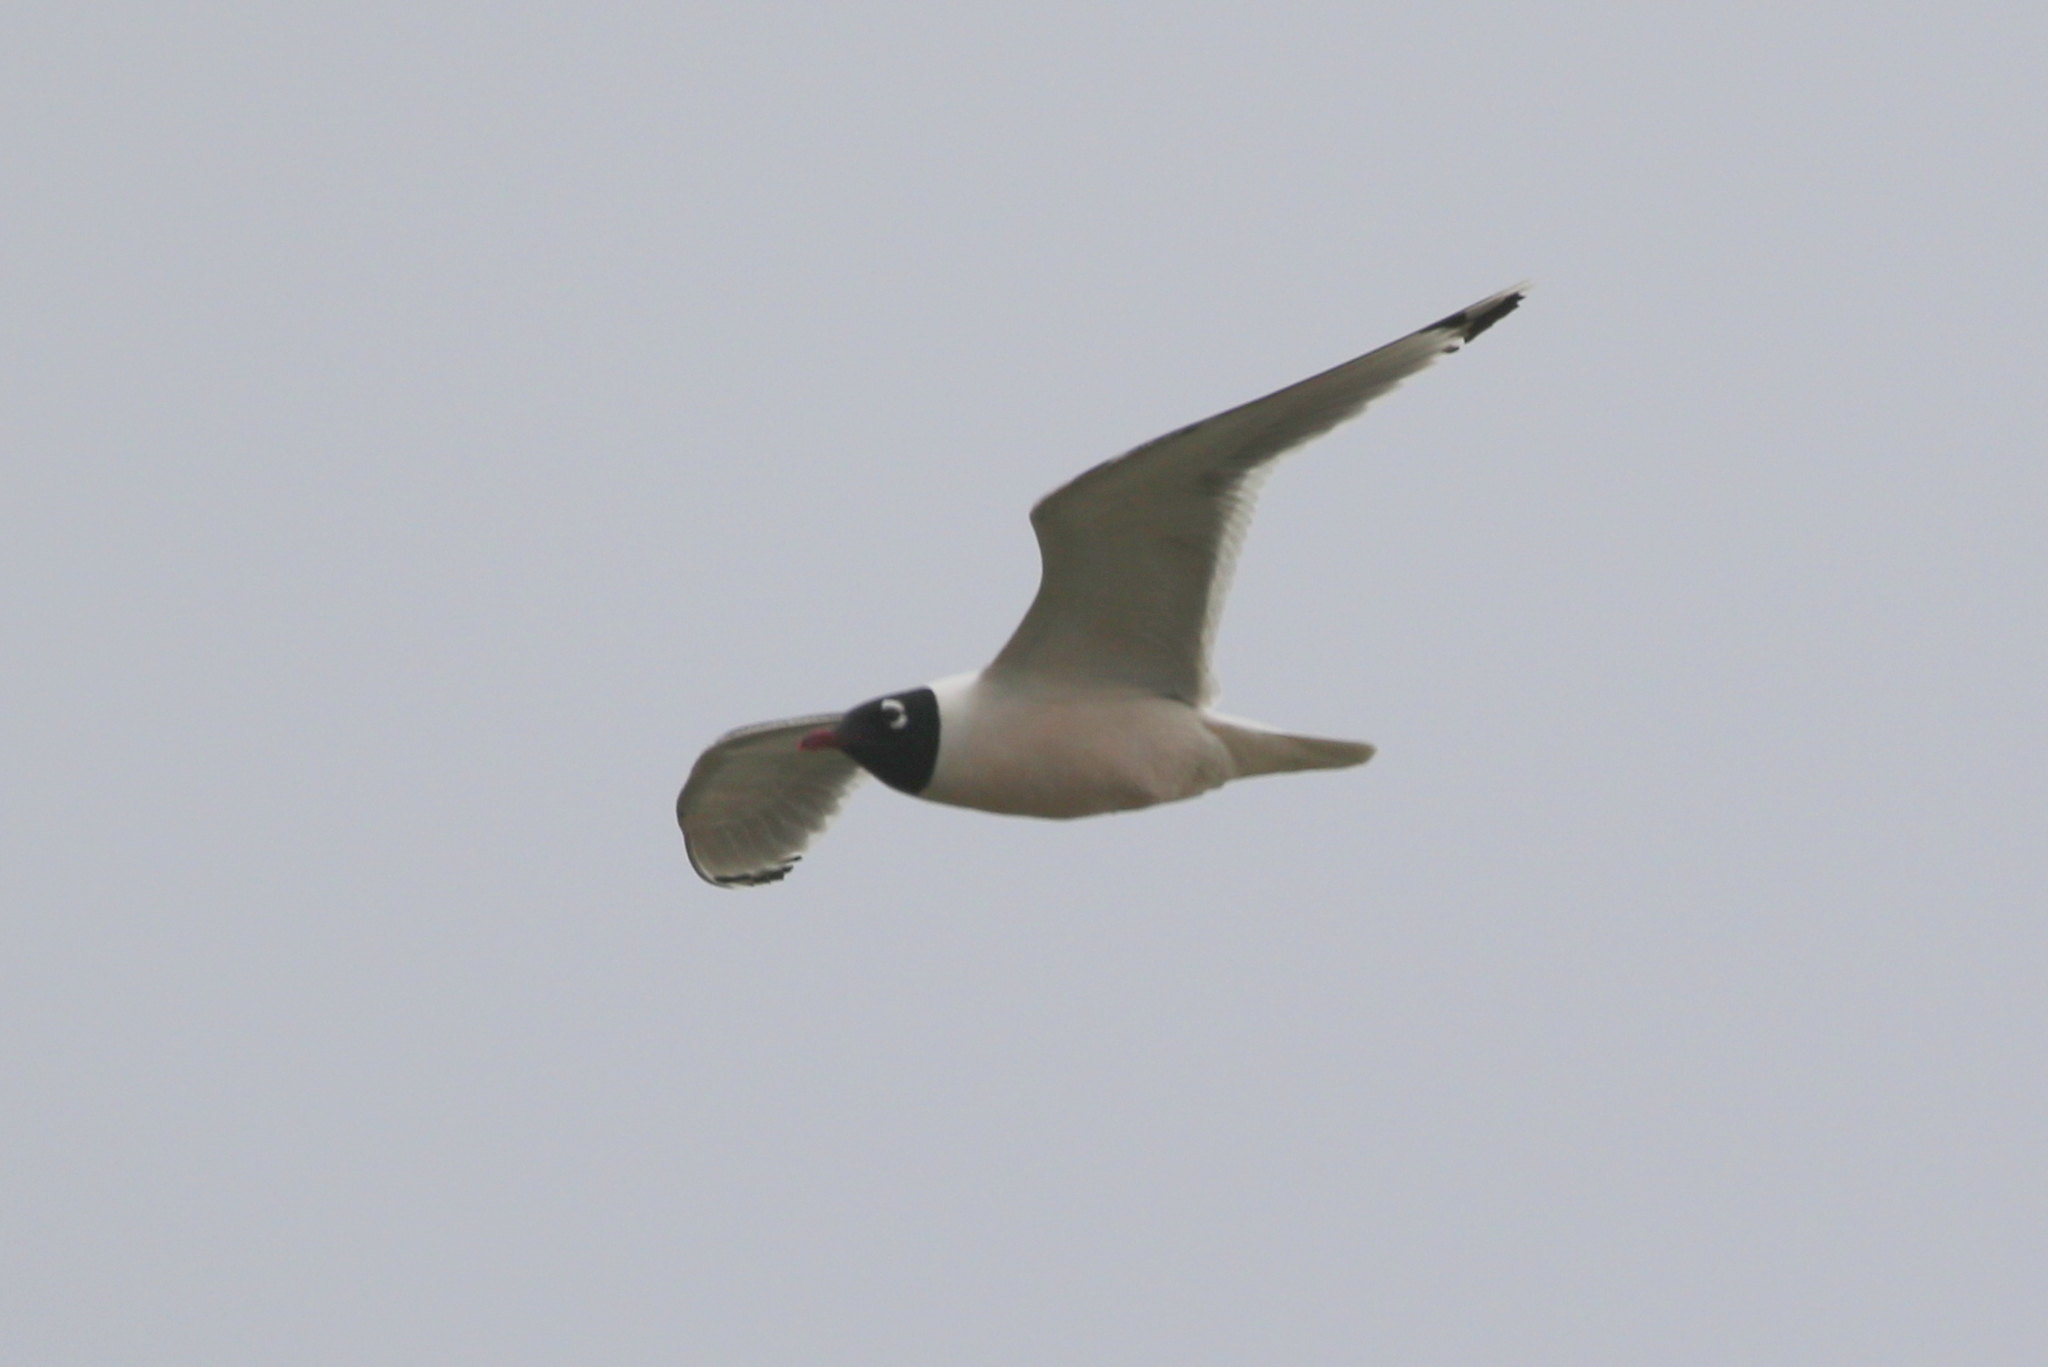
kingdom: Animalia
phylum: Chordata
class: Aves
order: Charadriiformes
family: Laridae
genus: Leucophaeus
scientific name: Leucophaeus pipixcan
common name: Franklin's gull
